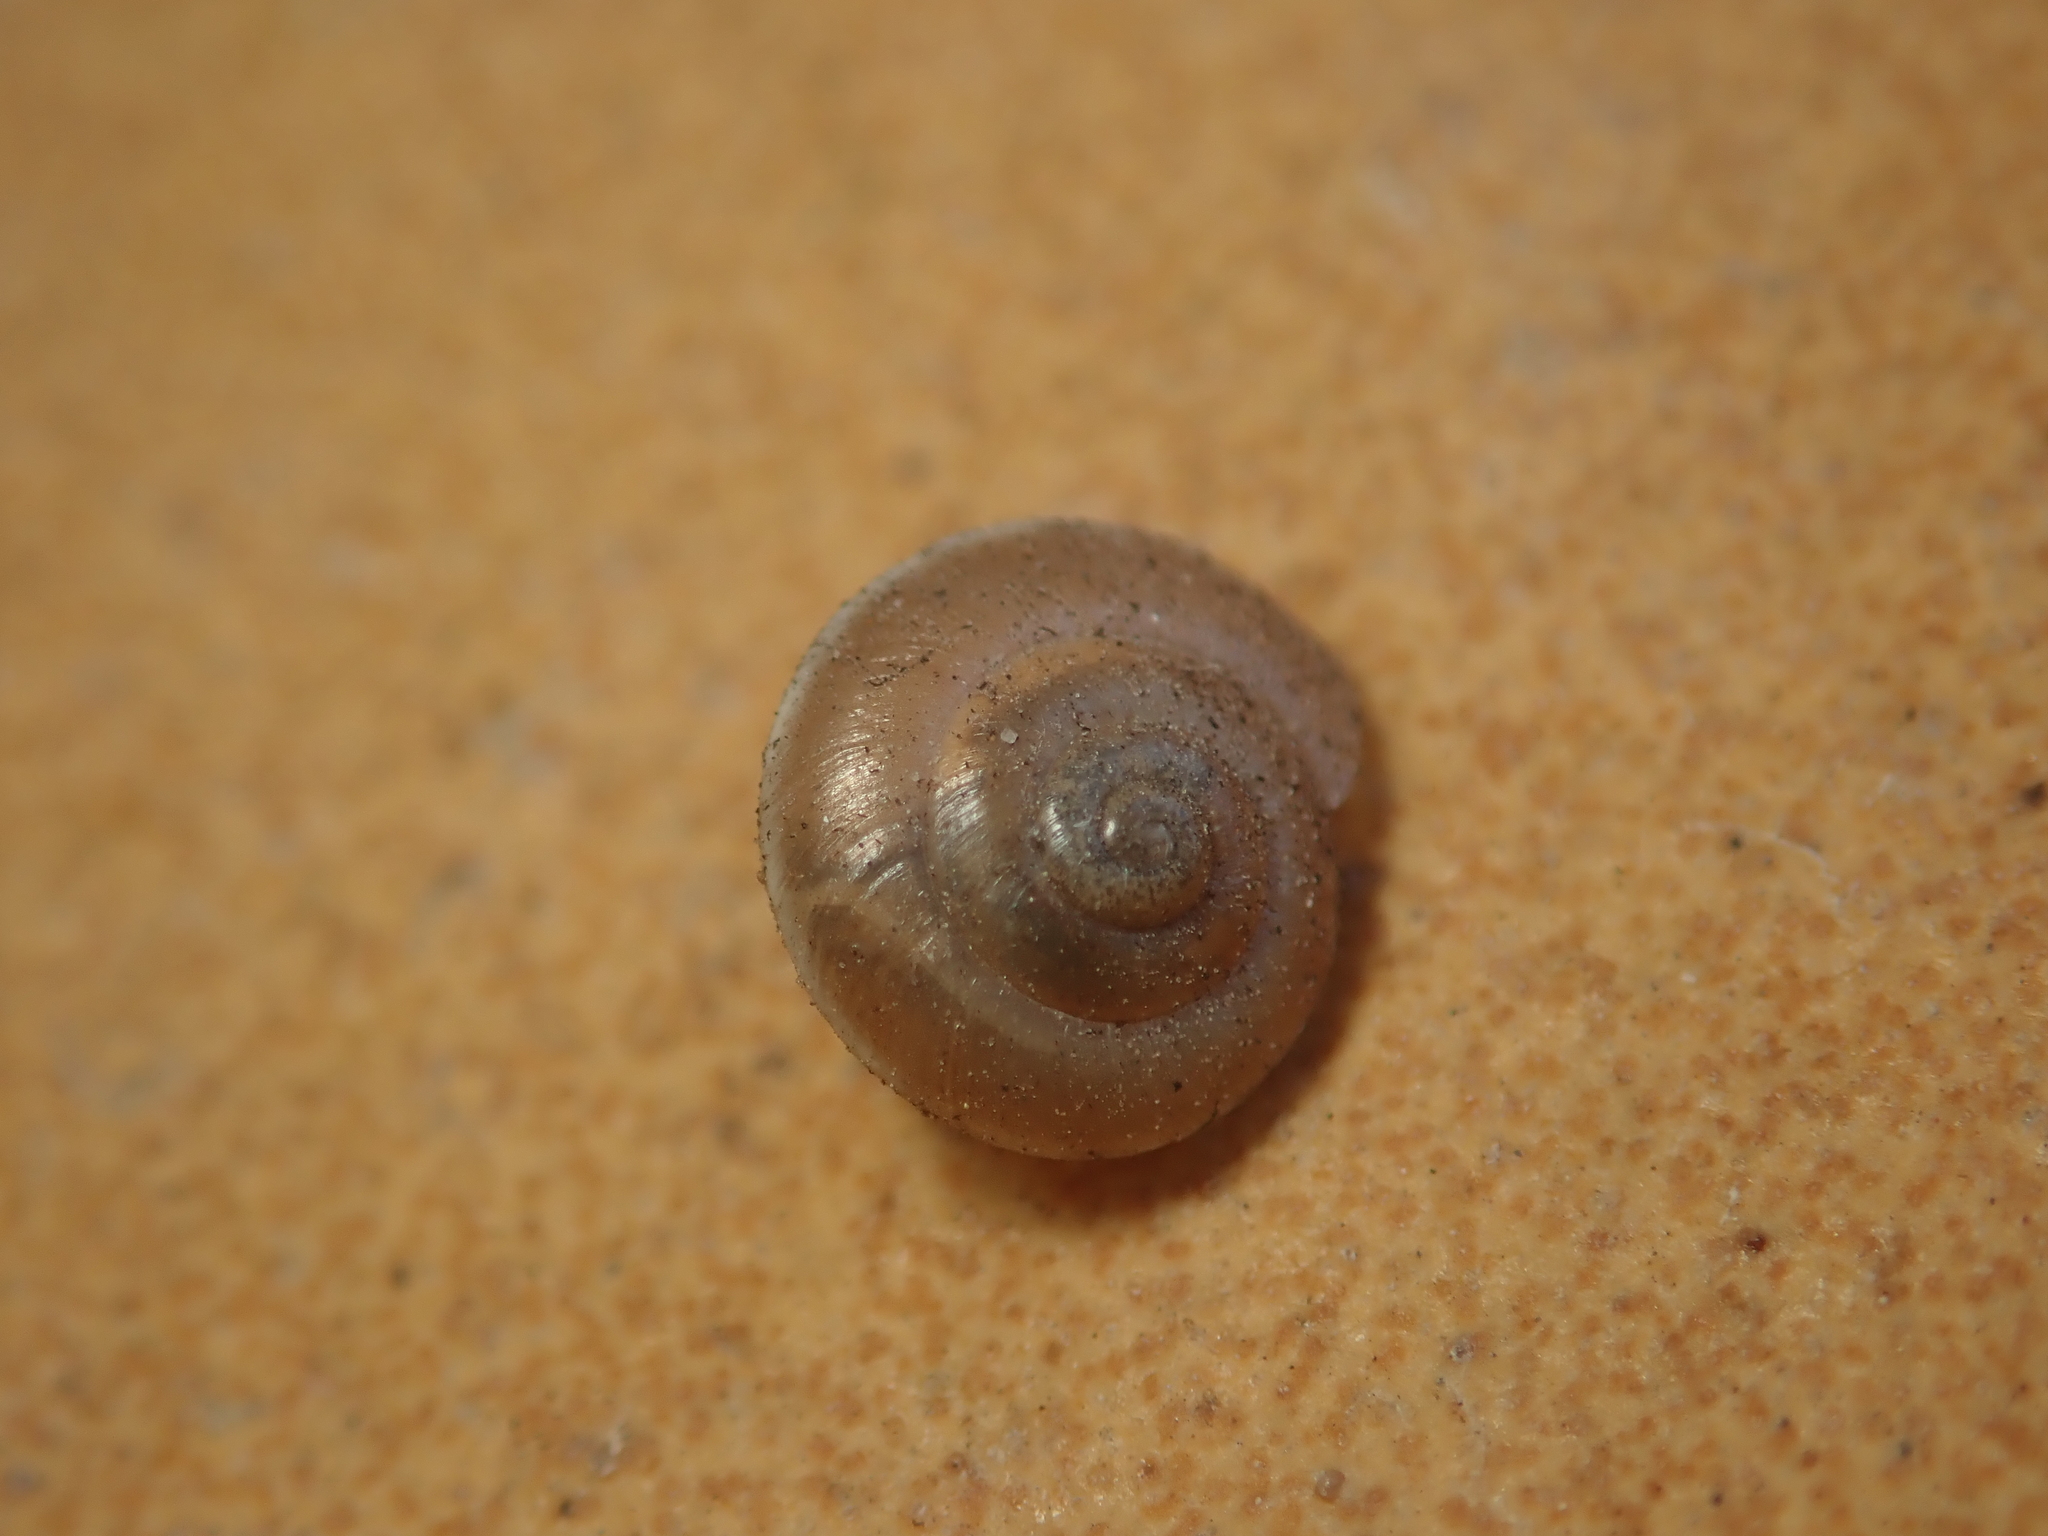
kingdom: Animalia
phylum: Mollusca
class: Gastropoda
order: Stylommatophora
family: Hygromiidae
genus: Hygromia
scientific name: Hygromia cinctella
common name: Girdled snail
